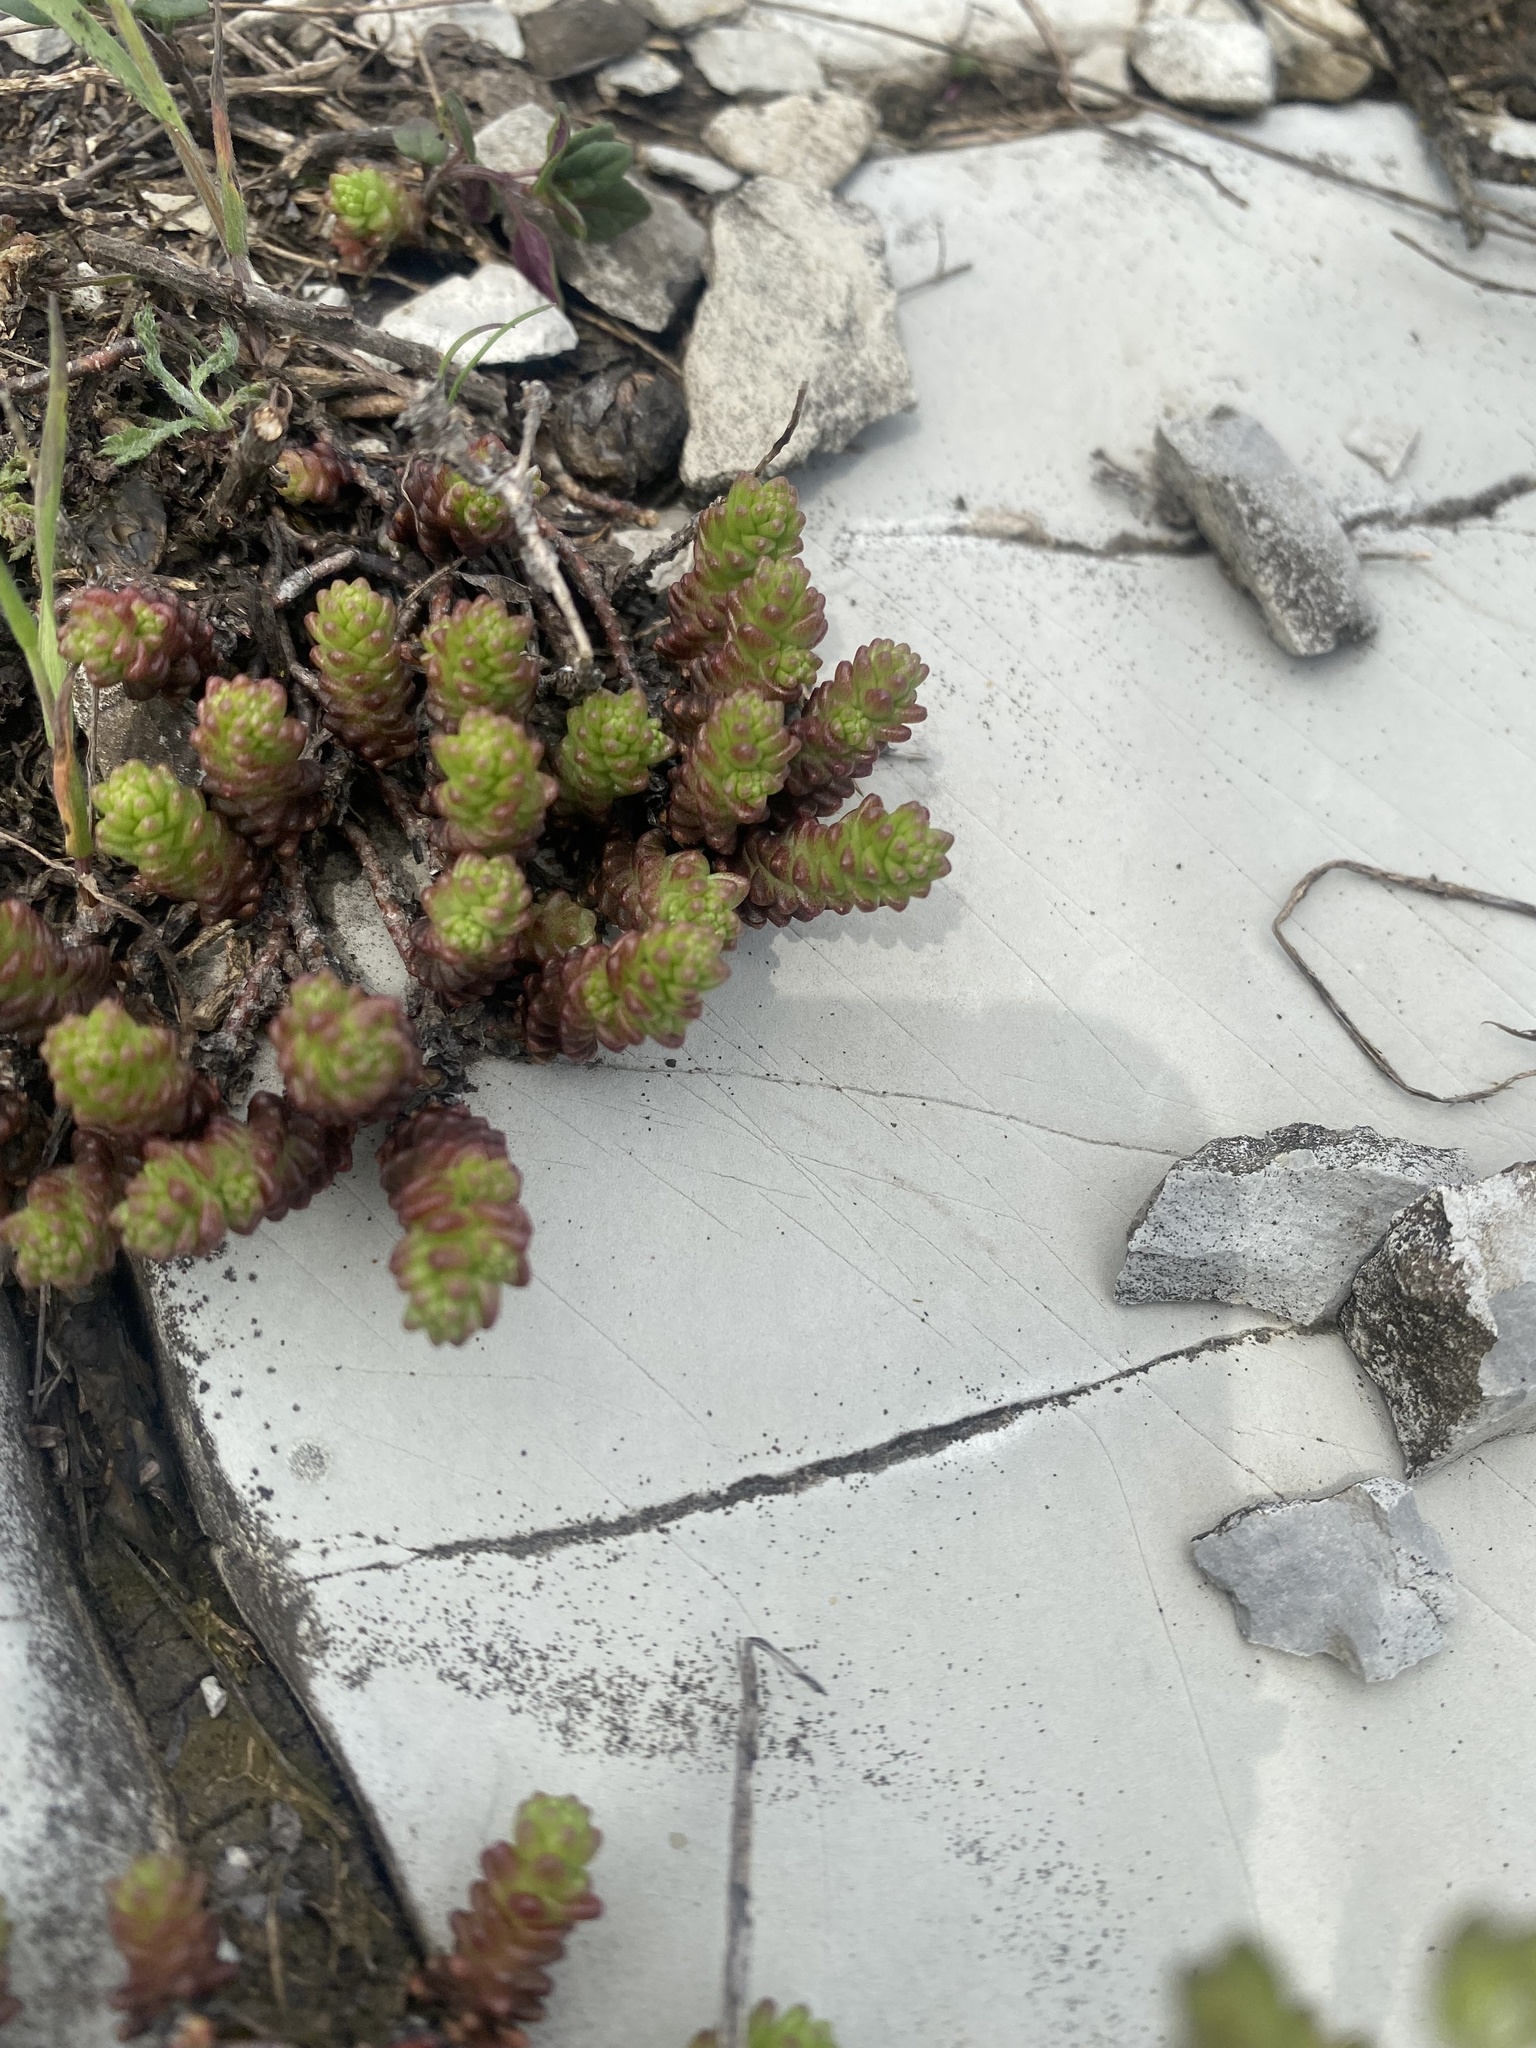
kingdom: Plantae
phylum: Tracheophyta
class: Magnoliopsida
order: Saxifragales
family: Crassulaceae
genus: Sedum
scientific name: Sedum acre
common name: Biting stonecrop
